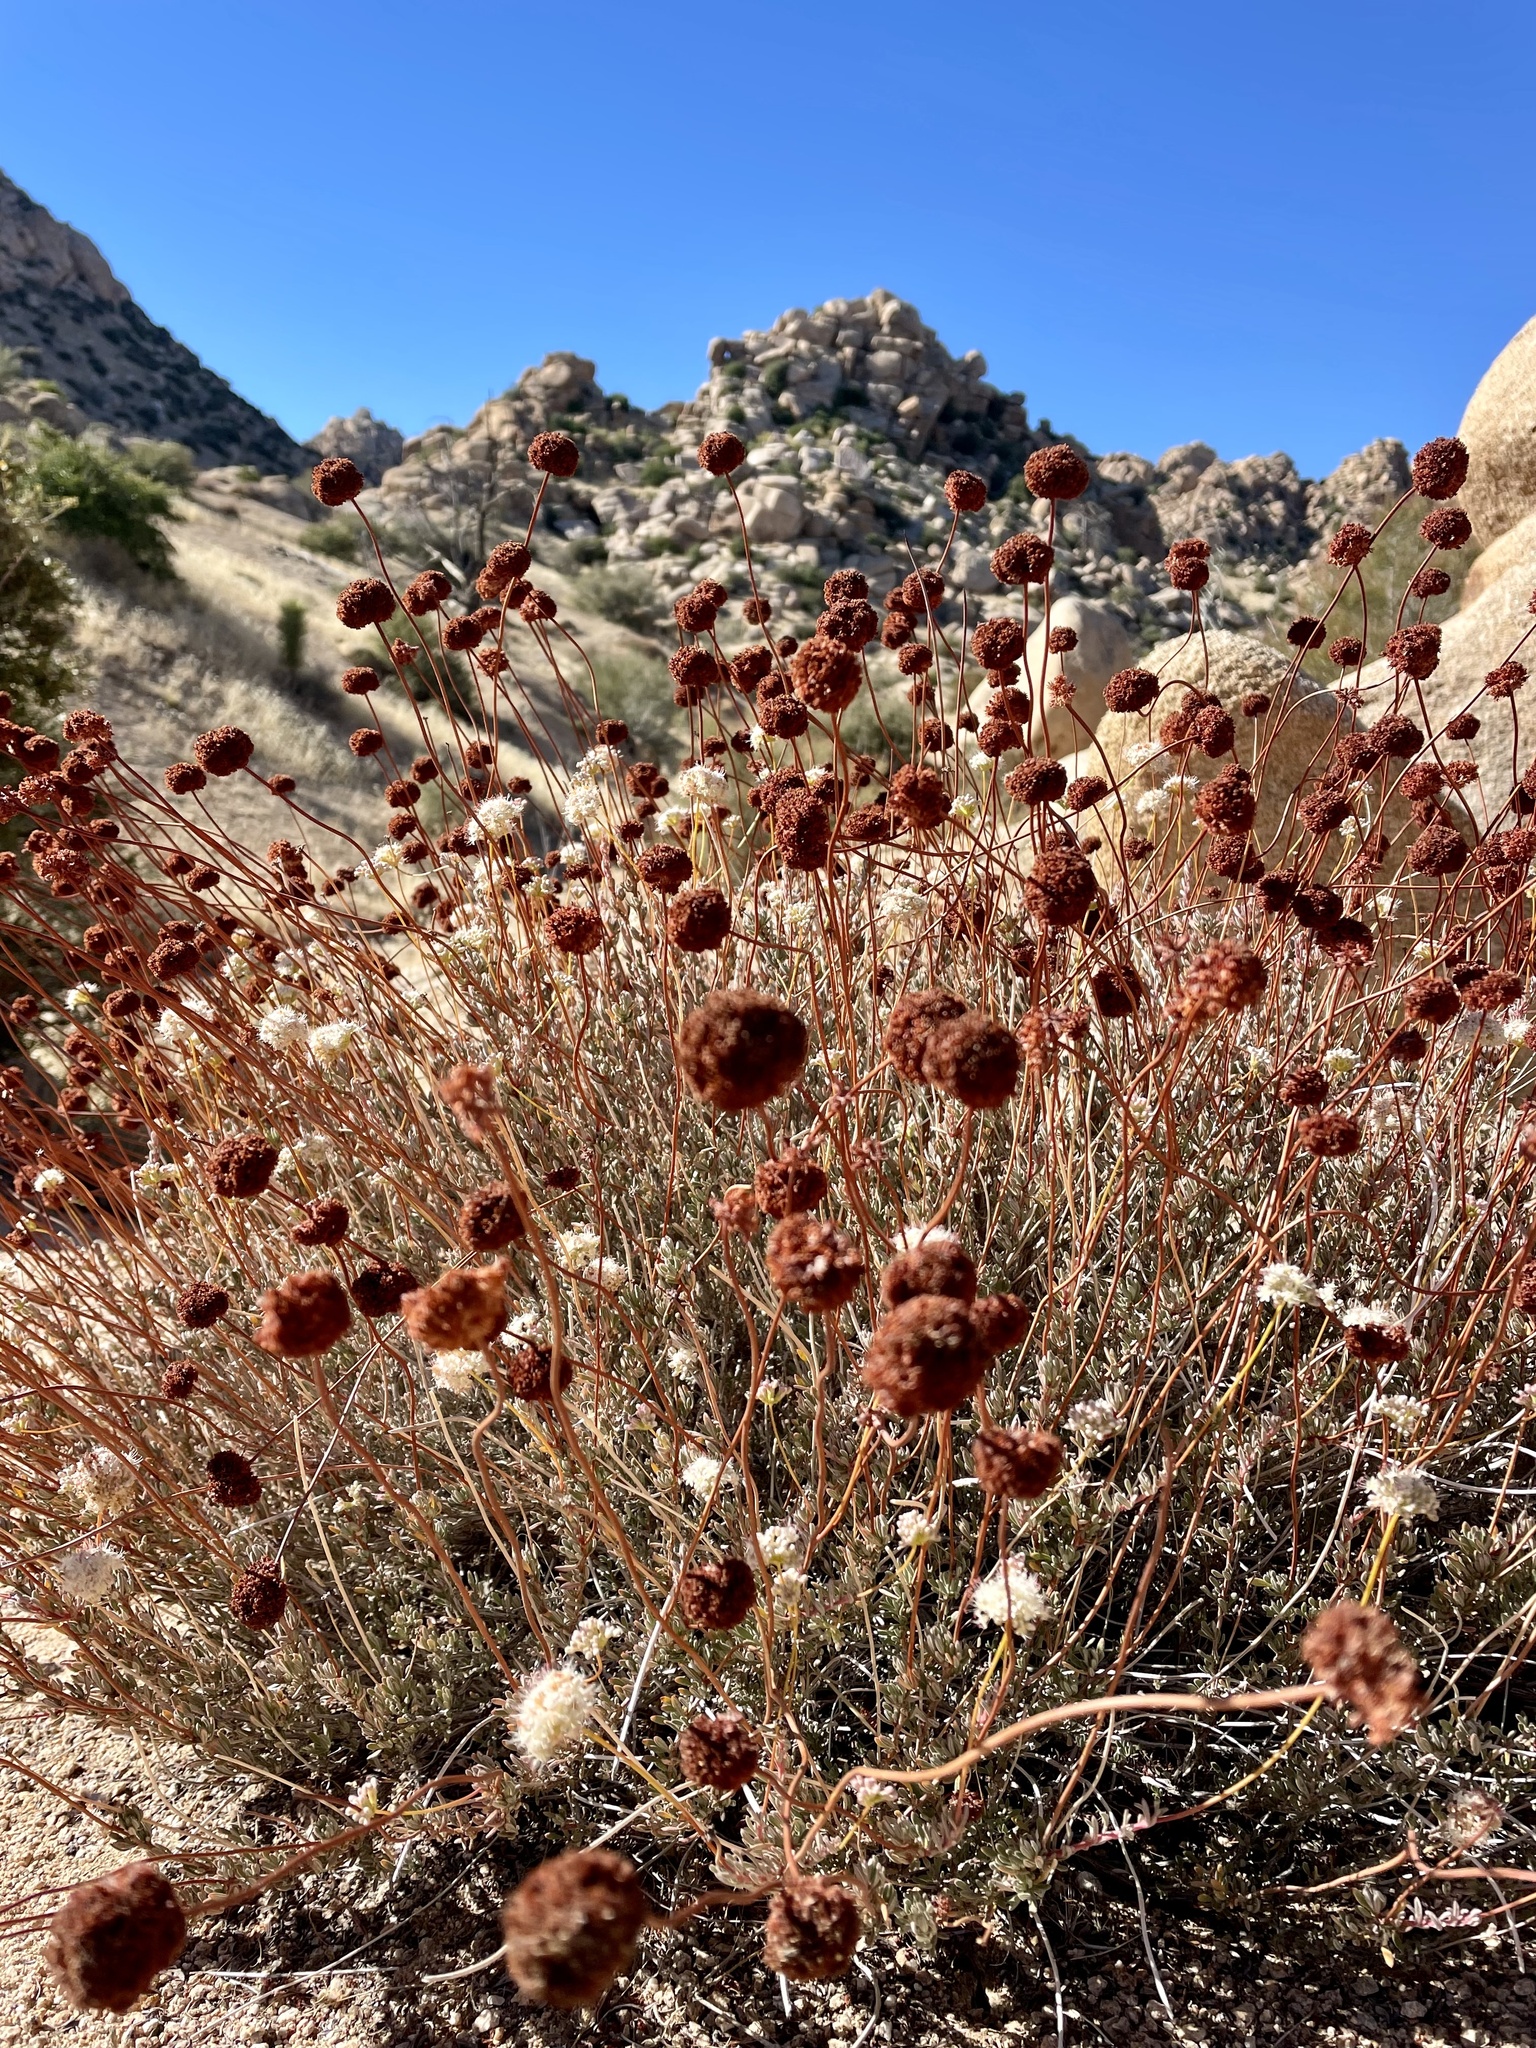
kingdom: Plantae
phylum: Tracheophyta
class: Magnoliopsida
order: Caryophyllales
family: Polygonaceae
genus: Eriogonum
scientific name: Eriogonum fasciculatum
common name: California wild buckwheat
